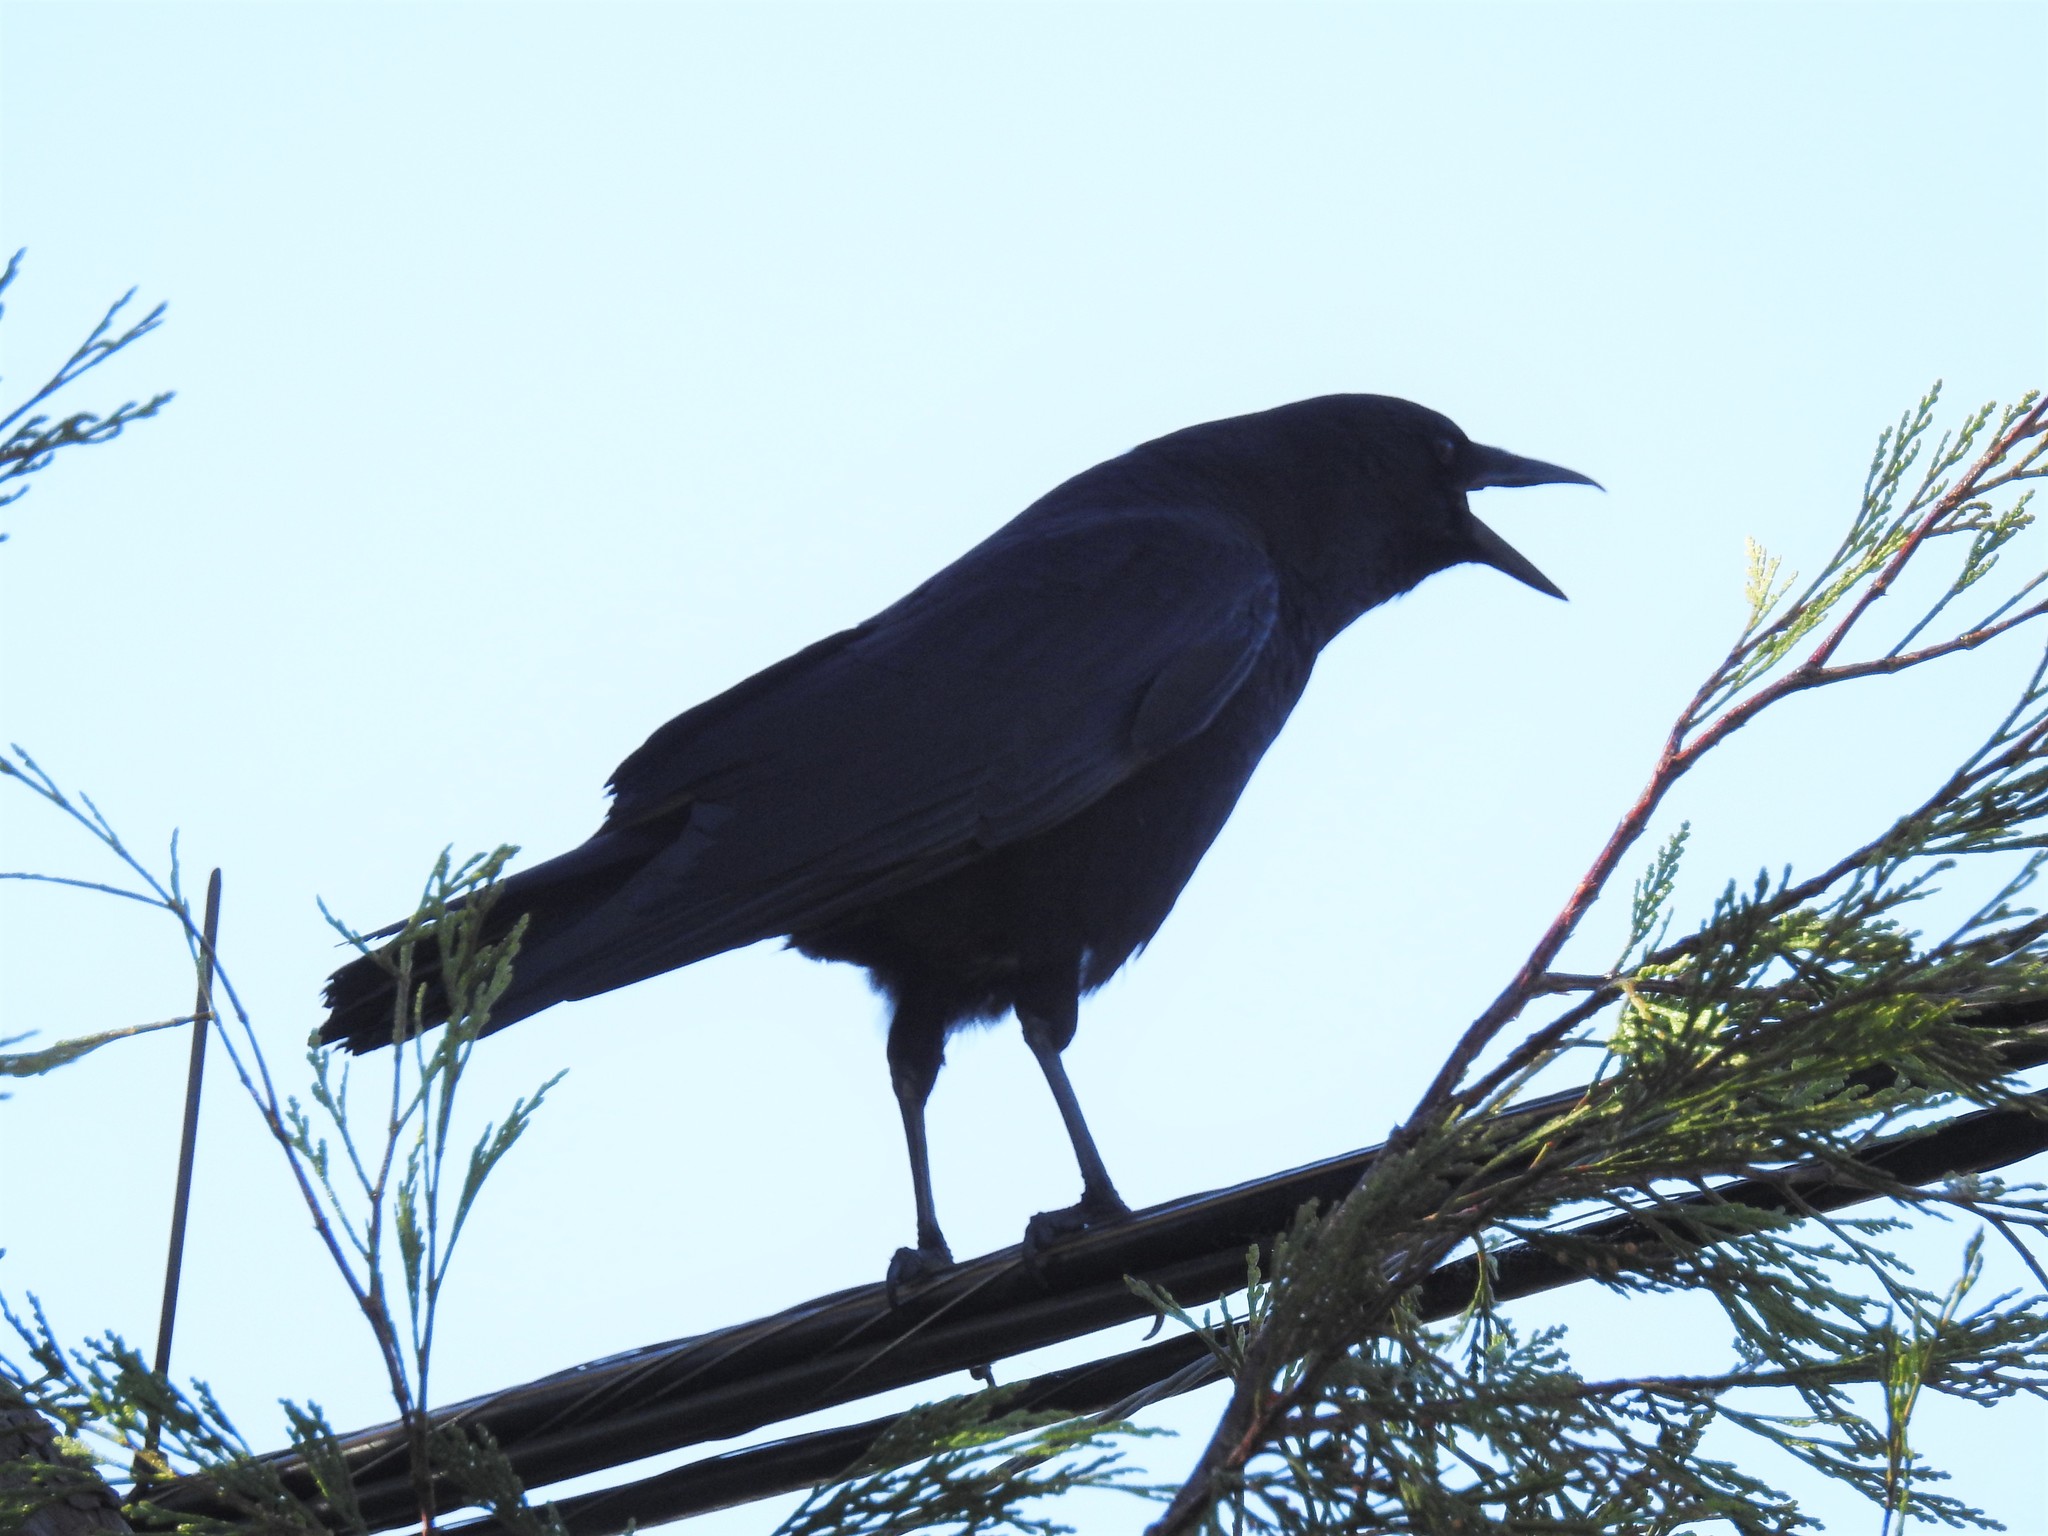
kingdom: Animalia
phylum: Chordata
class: Aves
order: Passeriformes
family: Corvidae
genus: Corvus
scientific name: Corvus brachyrhynchos
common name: American crow
